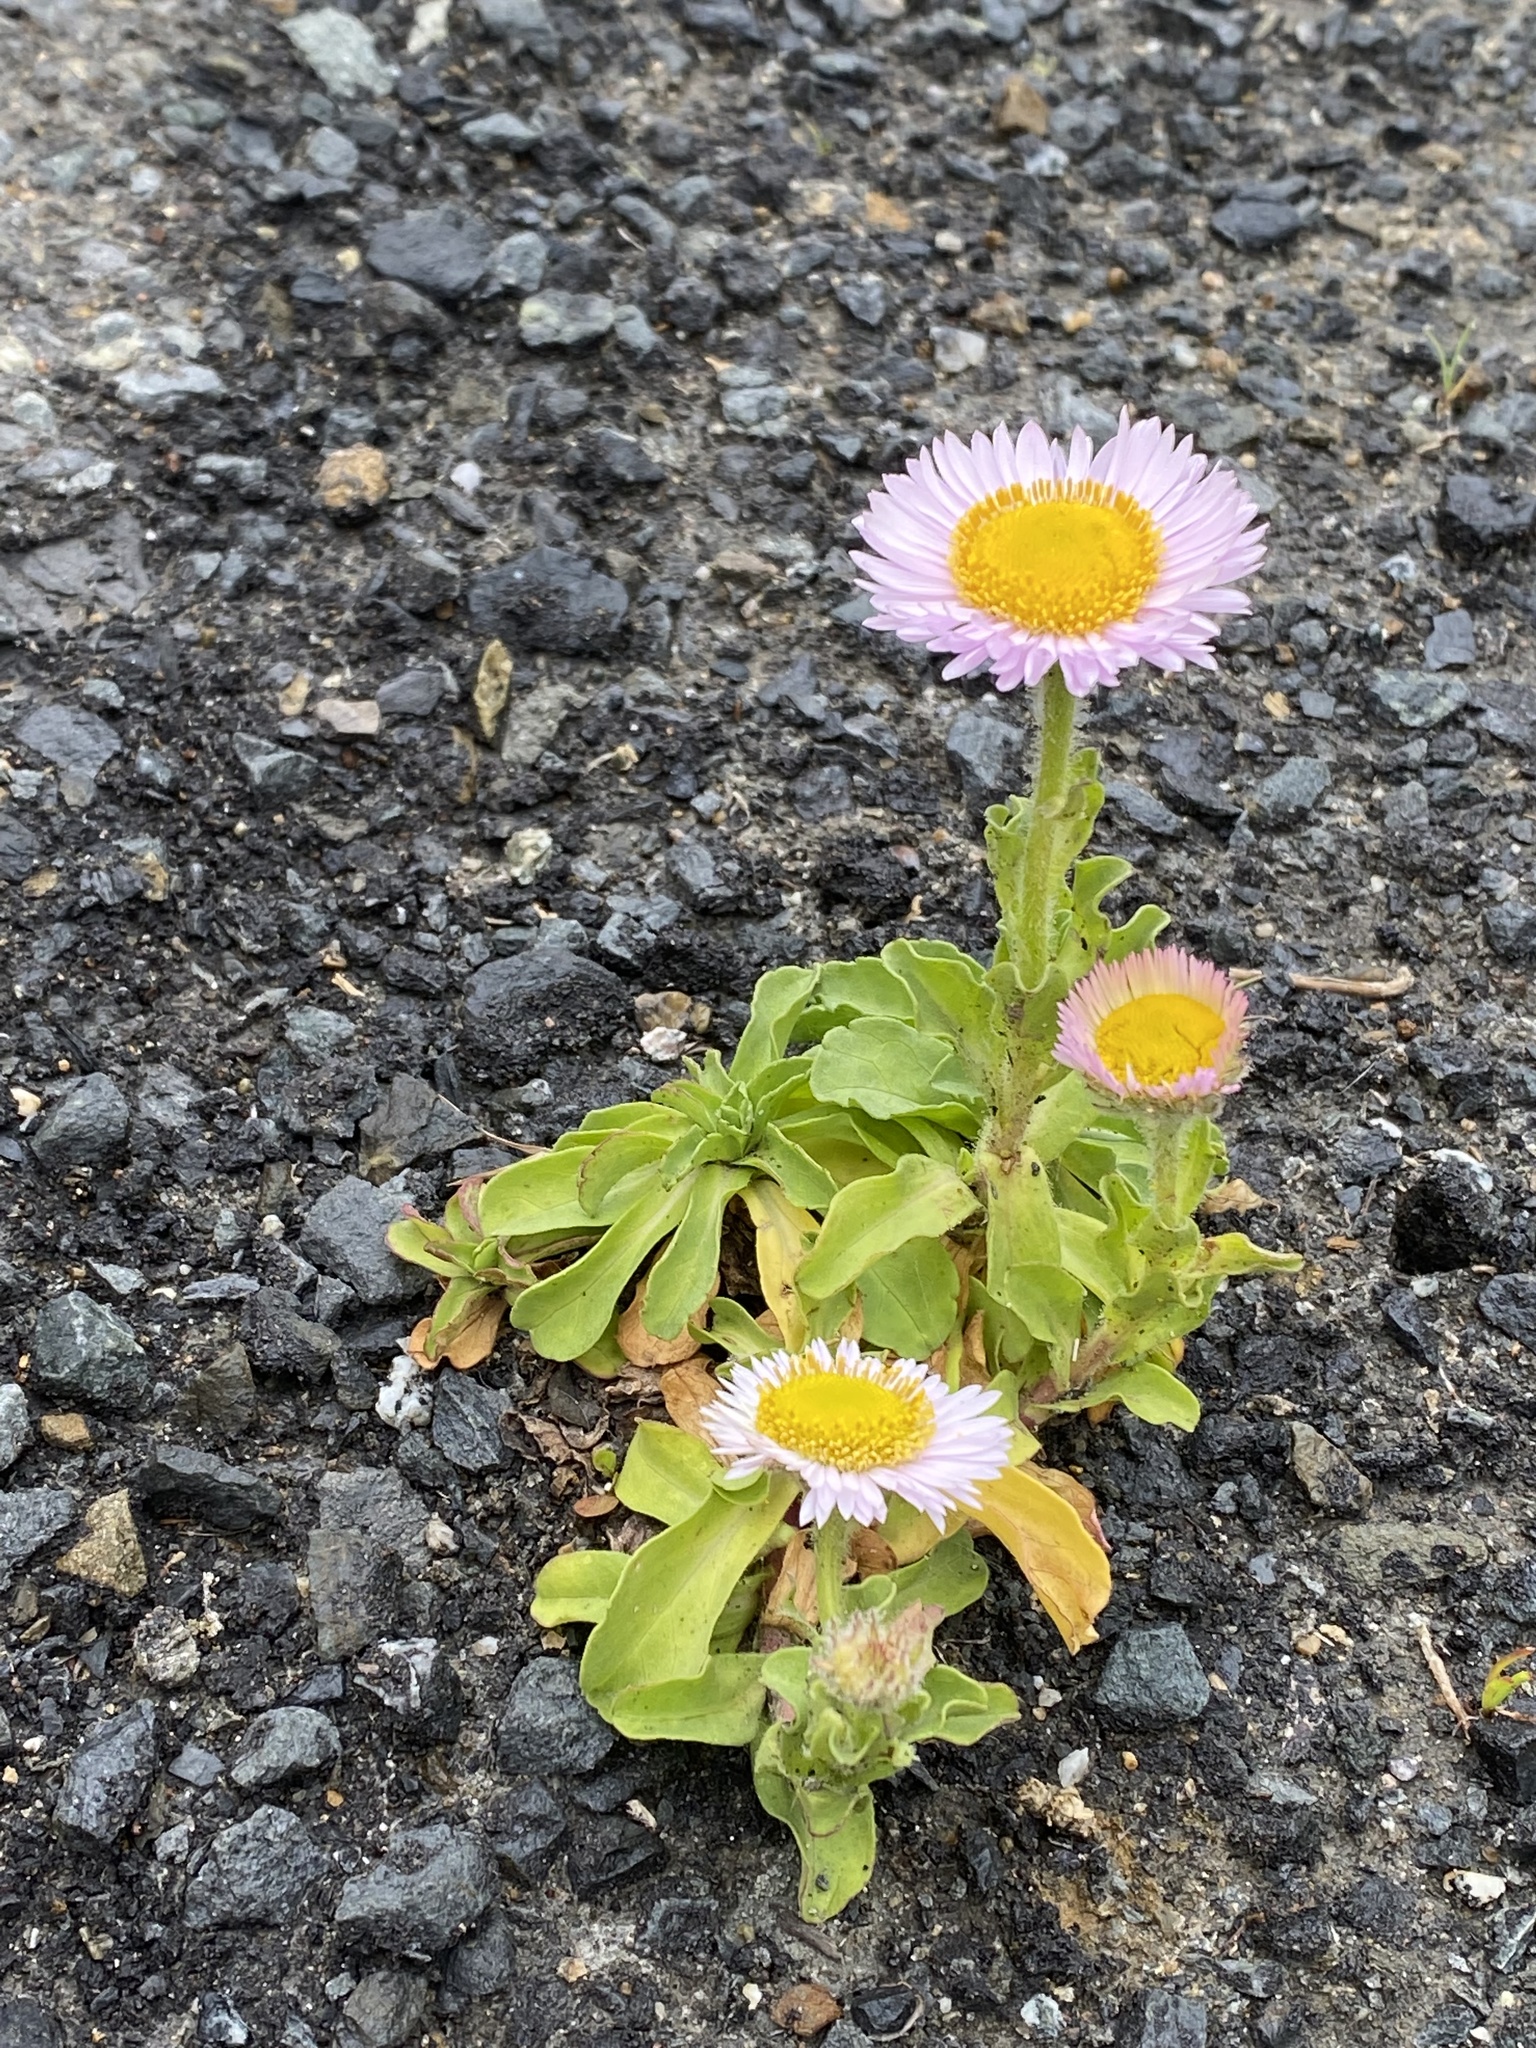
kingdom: Plantae
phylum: Tracheophyta
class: Magnoliopsida
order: Asterales
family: Asteraceae
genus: Erigeron
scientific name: Erigeron glaucus
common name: Seaside daisy
